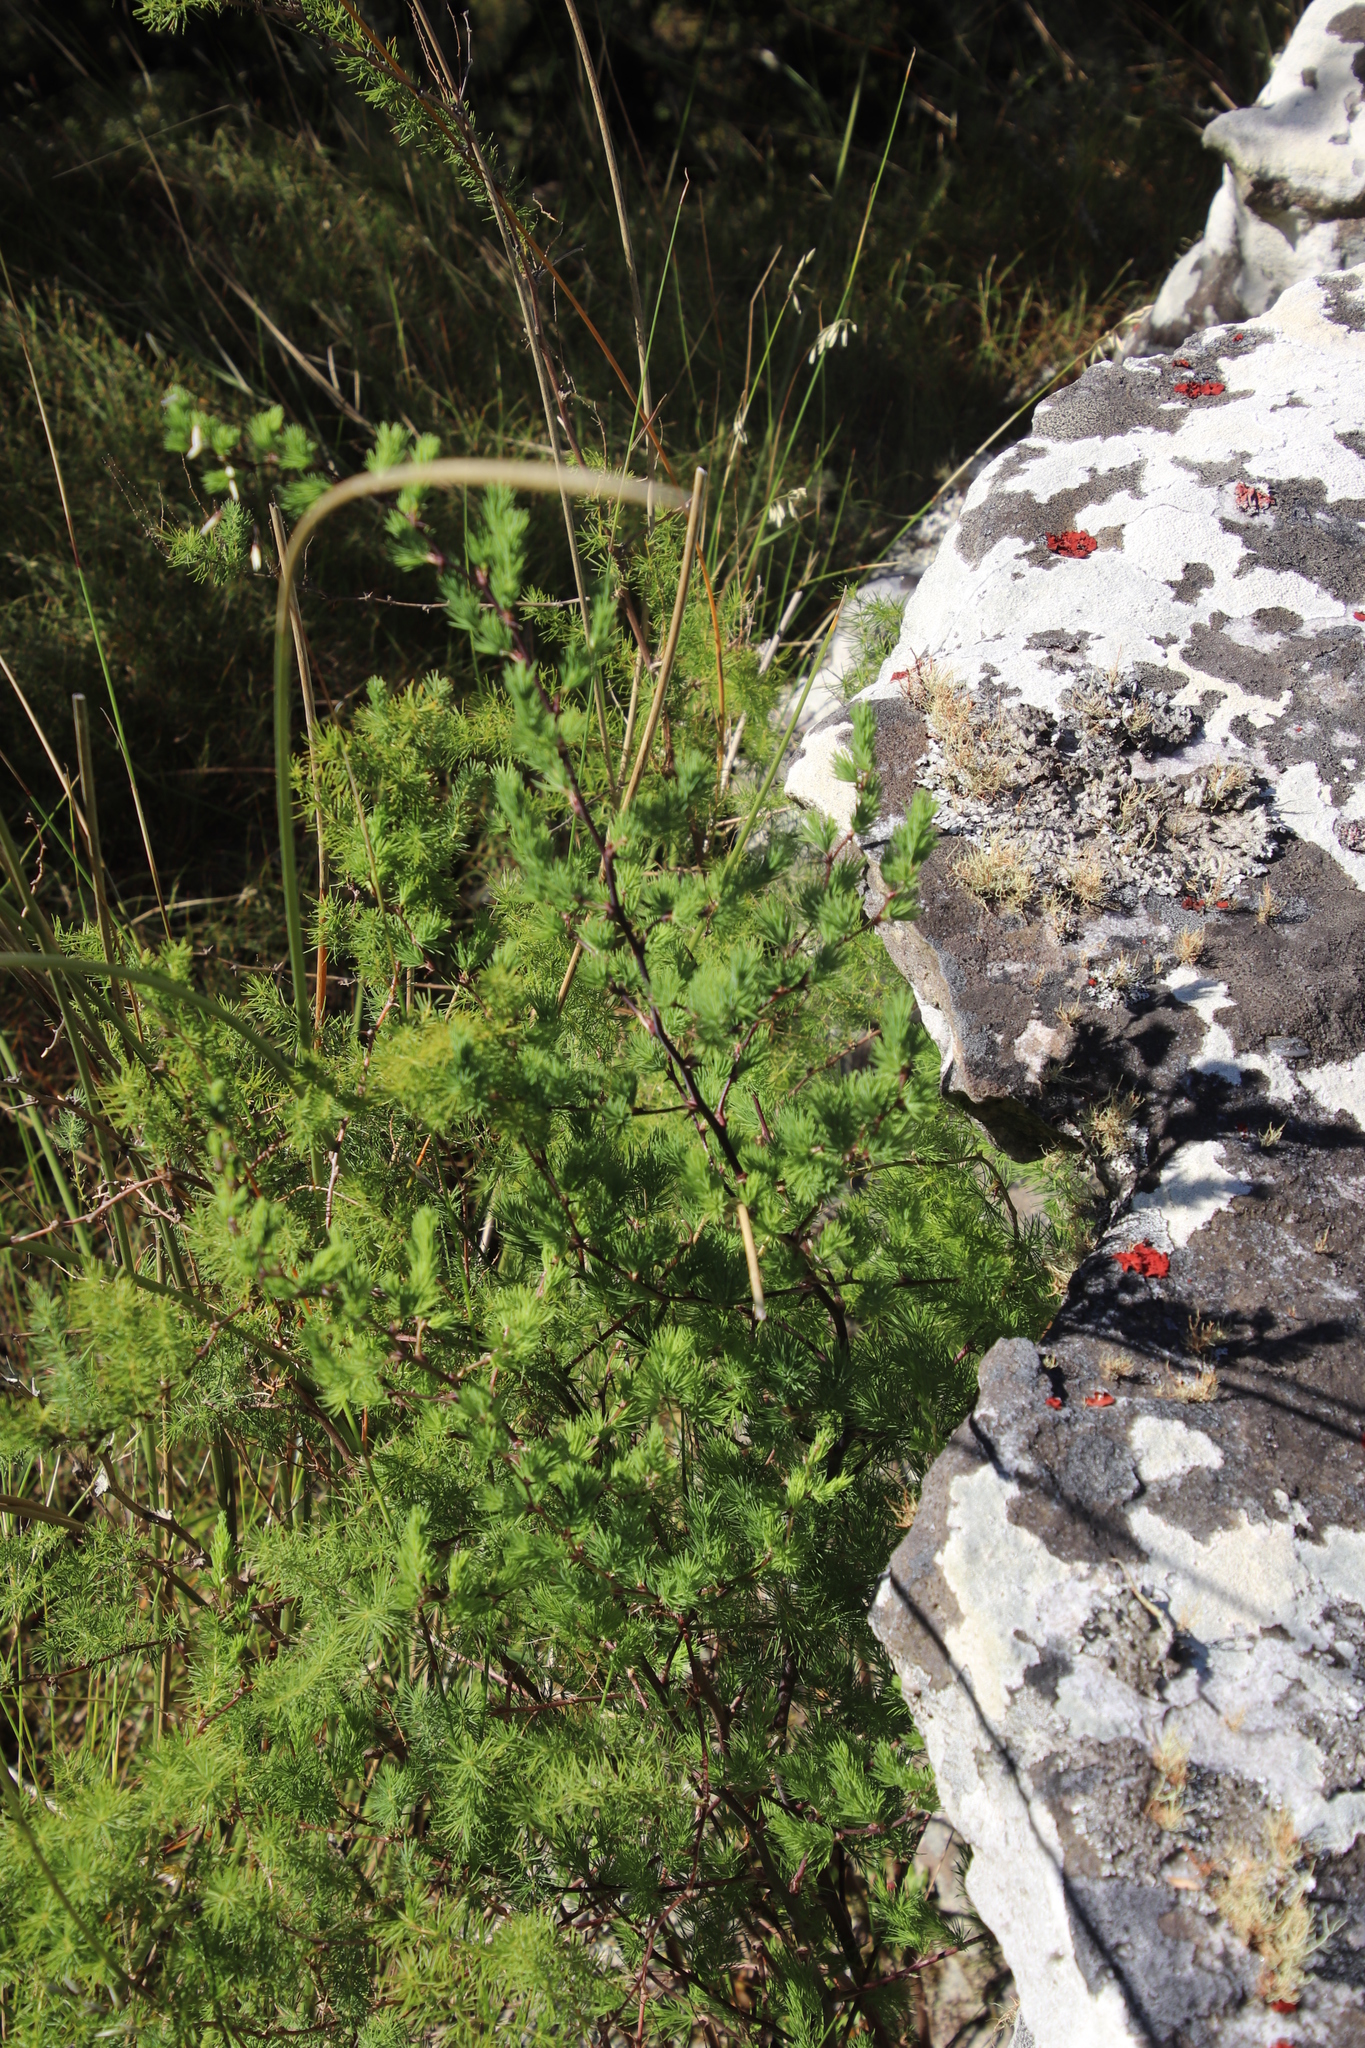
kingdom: Plantae
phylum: Tracheophyta
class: Liliopsida
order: Asparagales
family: Asparagaceae
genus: Asparagus
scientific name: Asparagus rubicundus
